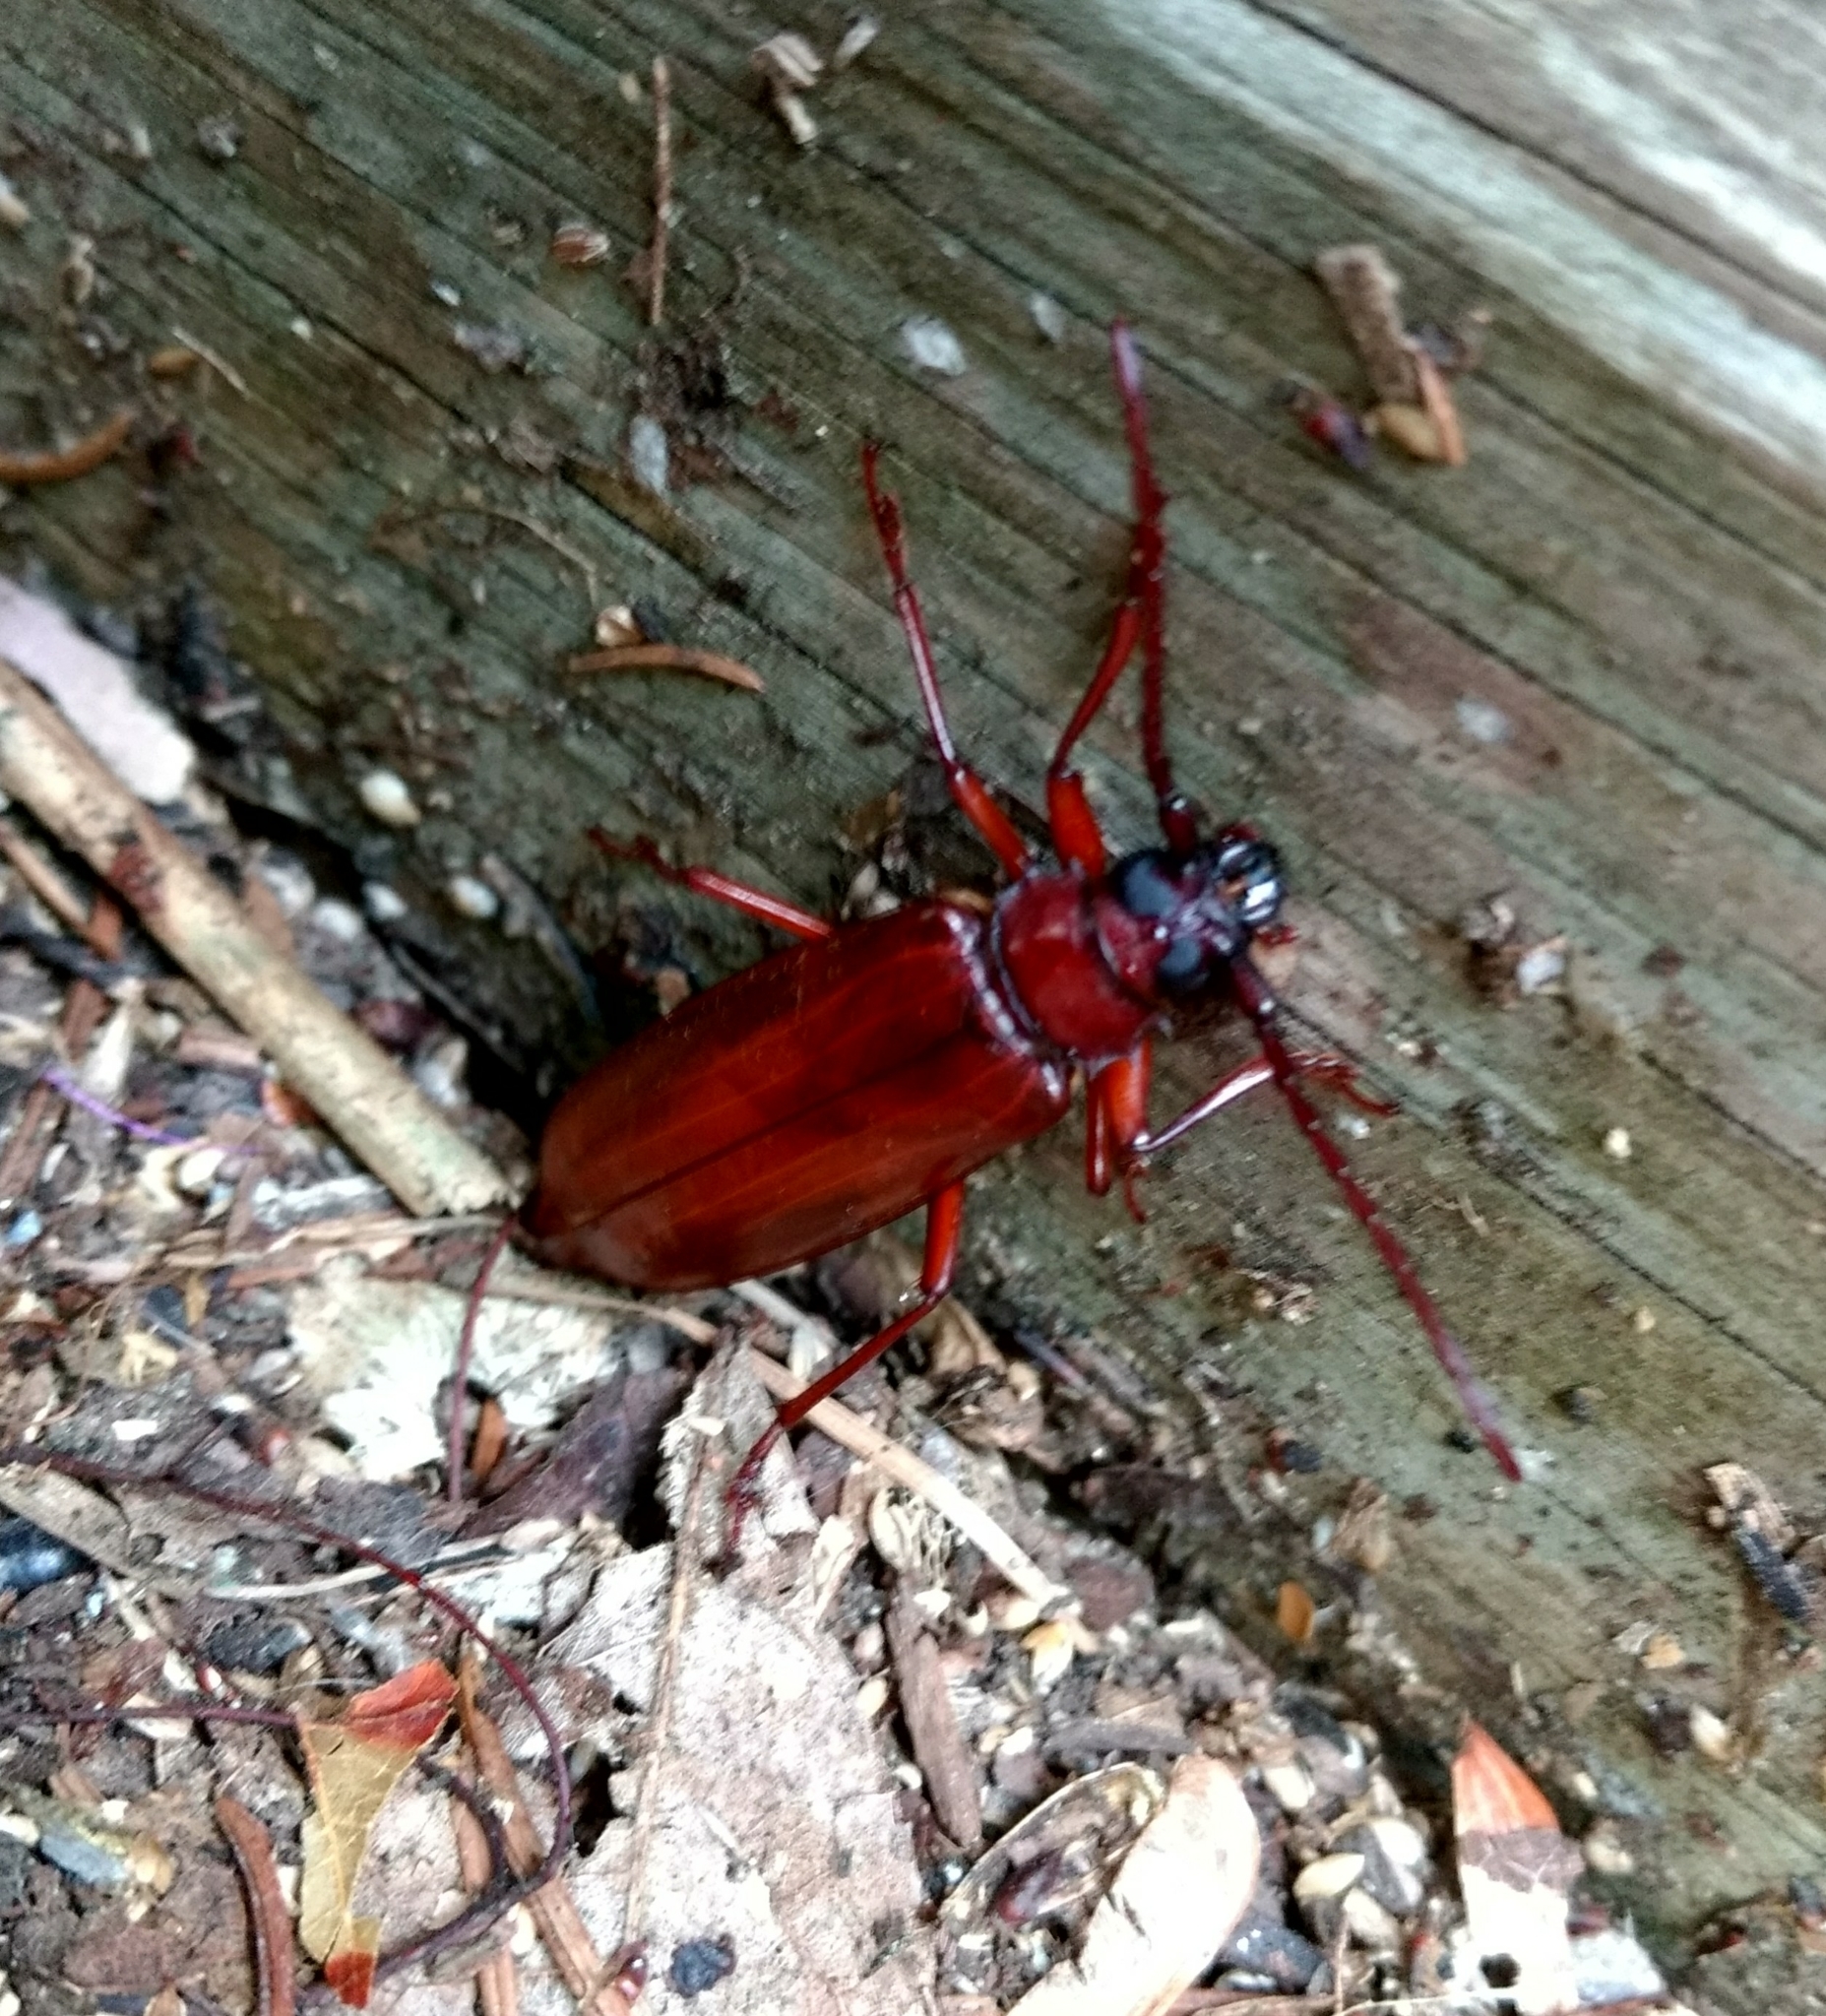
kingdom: Animalia
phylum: Arthropoda
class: Insecta
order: Coleoptera
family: Cerambycidae
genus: Orthosoma
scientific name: Orthosoma brunneum
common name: Brown prionid beetle
